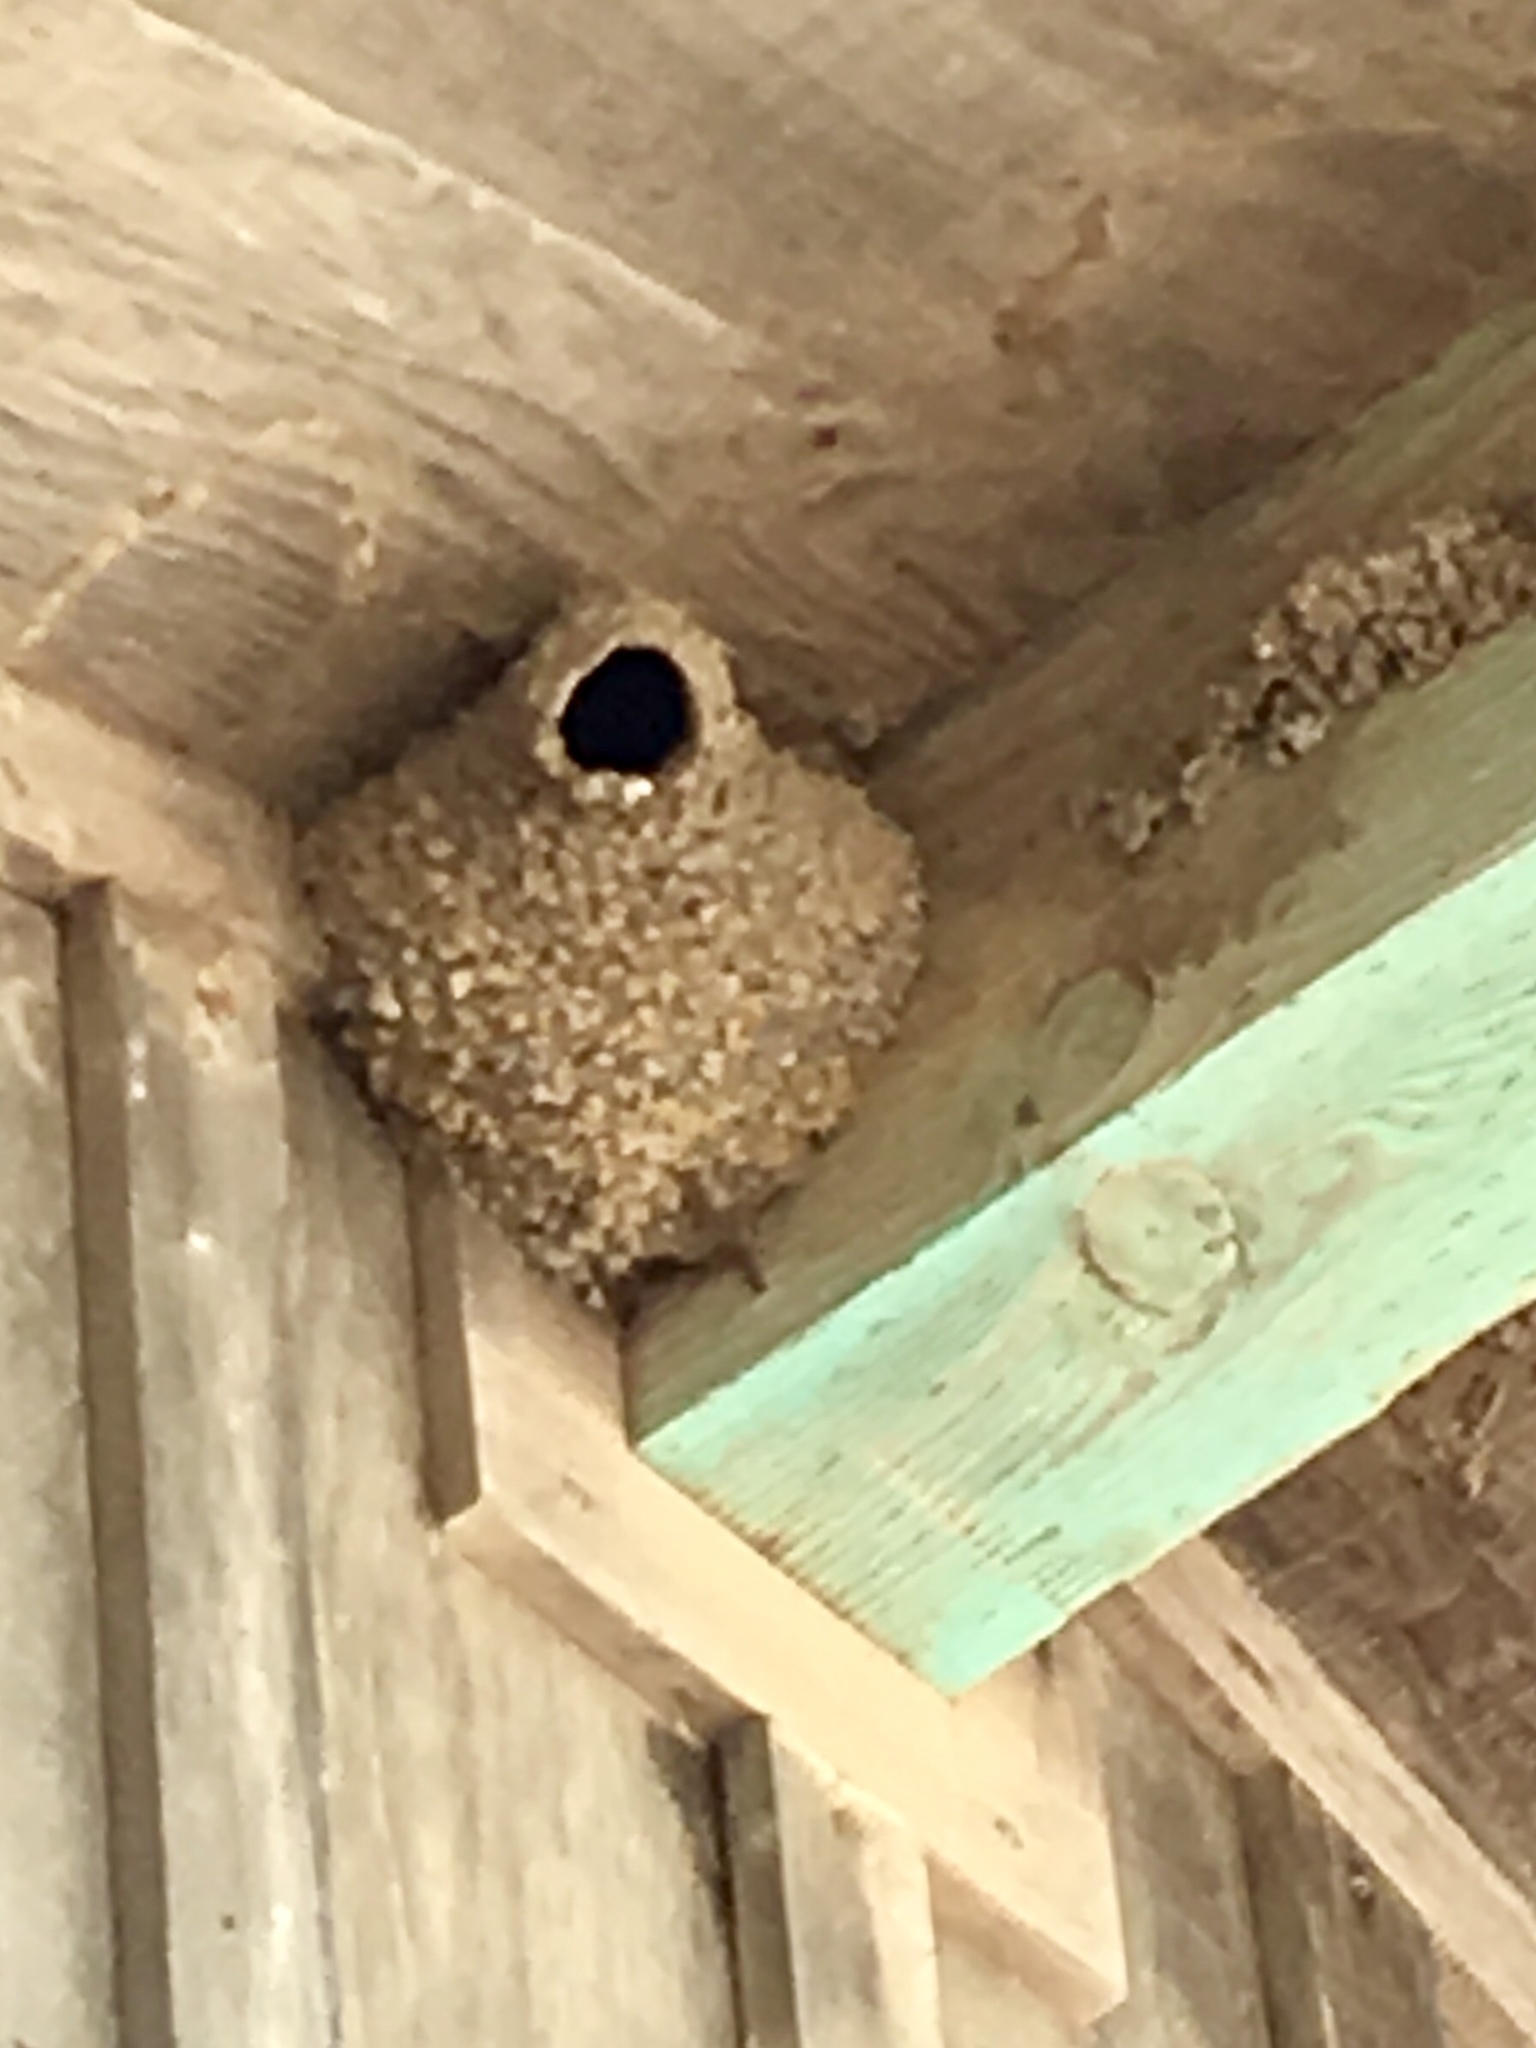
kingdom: Animalia
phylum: Chordata
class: Aves
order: Passeriformes
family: Hirundinidae
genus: Petrochelidon
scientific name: Petrochelidon pyrrhonota
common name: American cliff swallow
